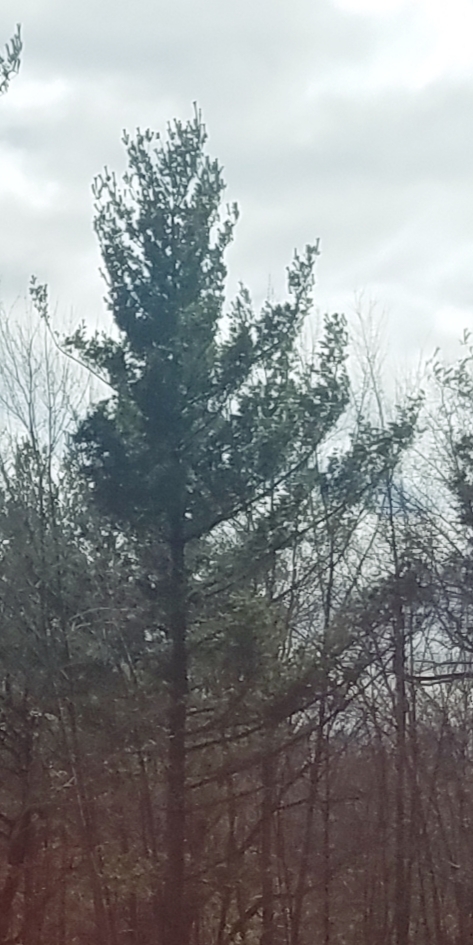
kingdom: Plantae
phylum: Tracheophyta
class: Pinopsida
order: Pinales
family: Pinaceae
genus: Pinus
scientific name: Pinus strobus
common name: Weymouth pine
